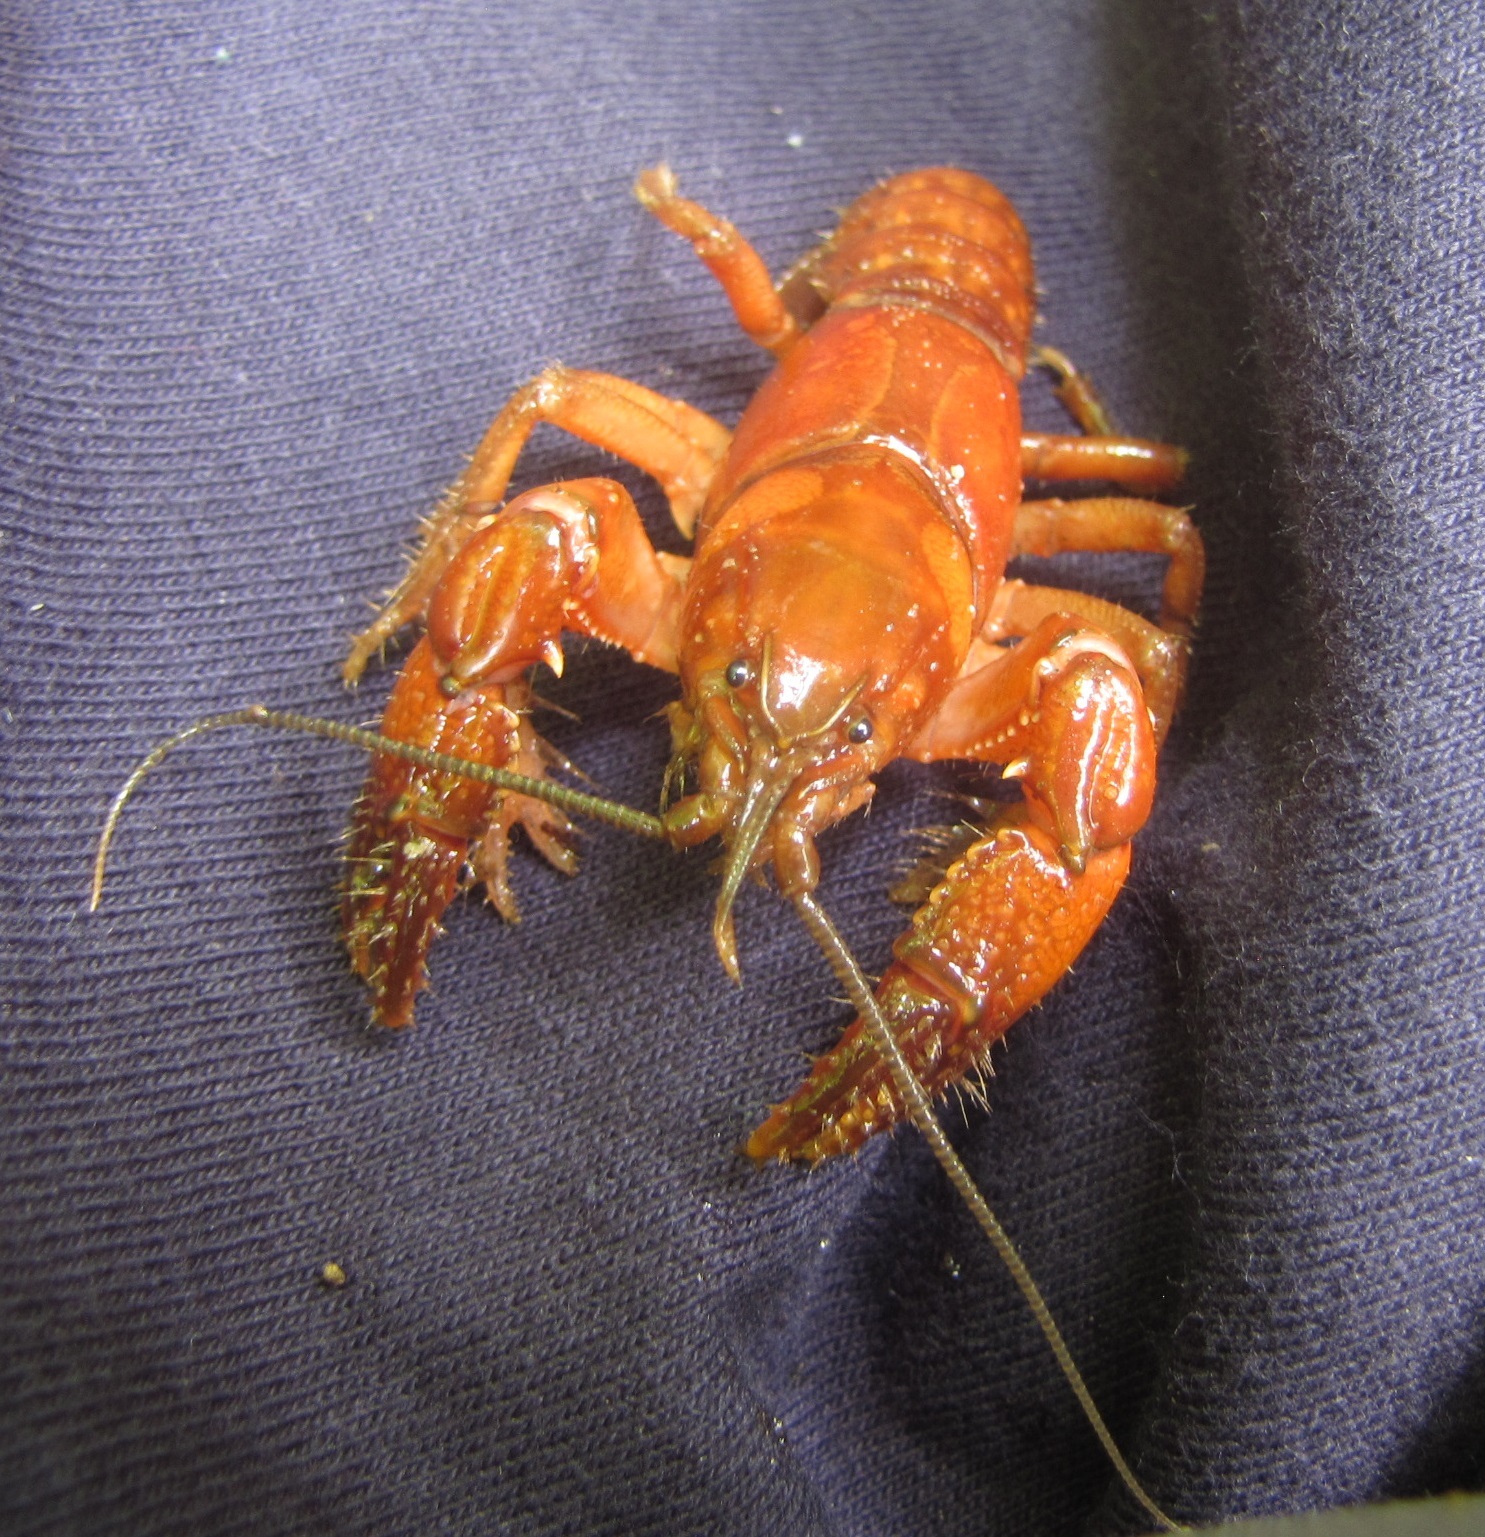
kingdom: Animalia
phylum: Arthropoda
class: Malacostraca
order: Decapoda
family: Cambaridae
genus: Cambarus
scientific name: Cambarus asperimanus
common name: Mitten crayfish
